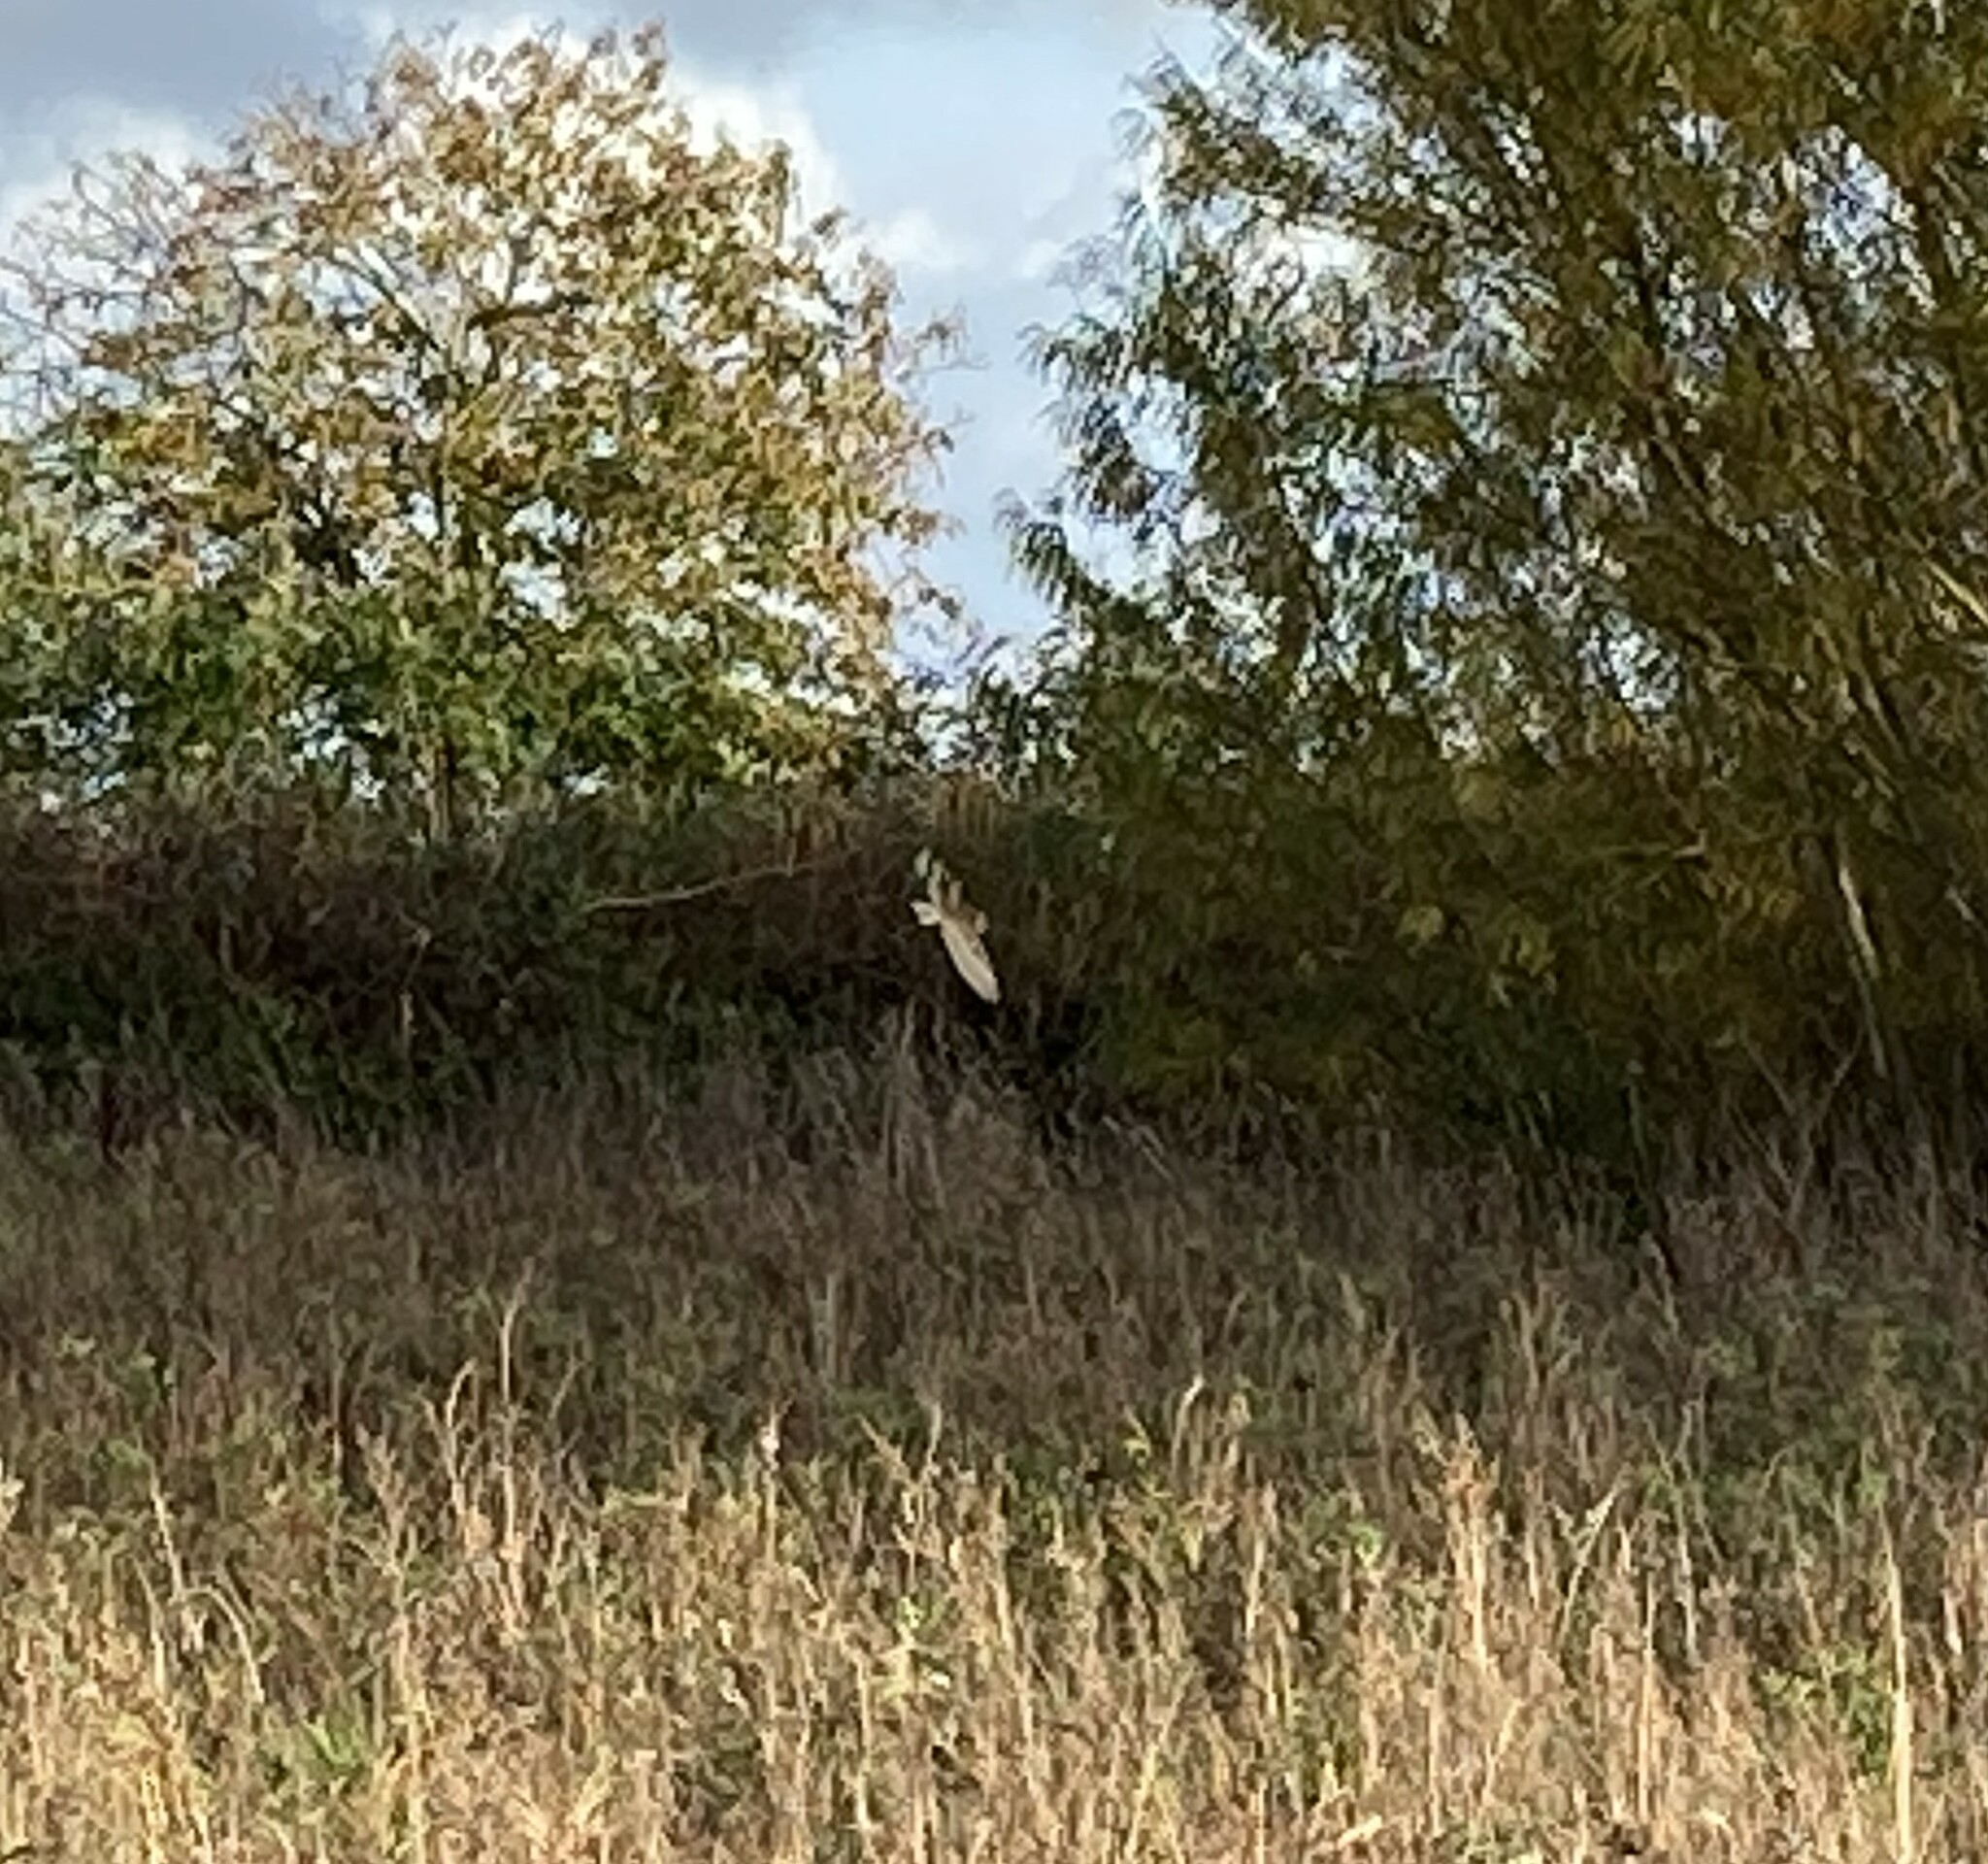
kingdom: Animalia
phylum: Chordata
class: Aves
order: Strigiformes
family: Tytonidae
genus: Tyto
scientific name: Tyto alba
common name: Barn owl
